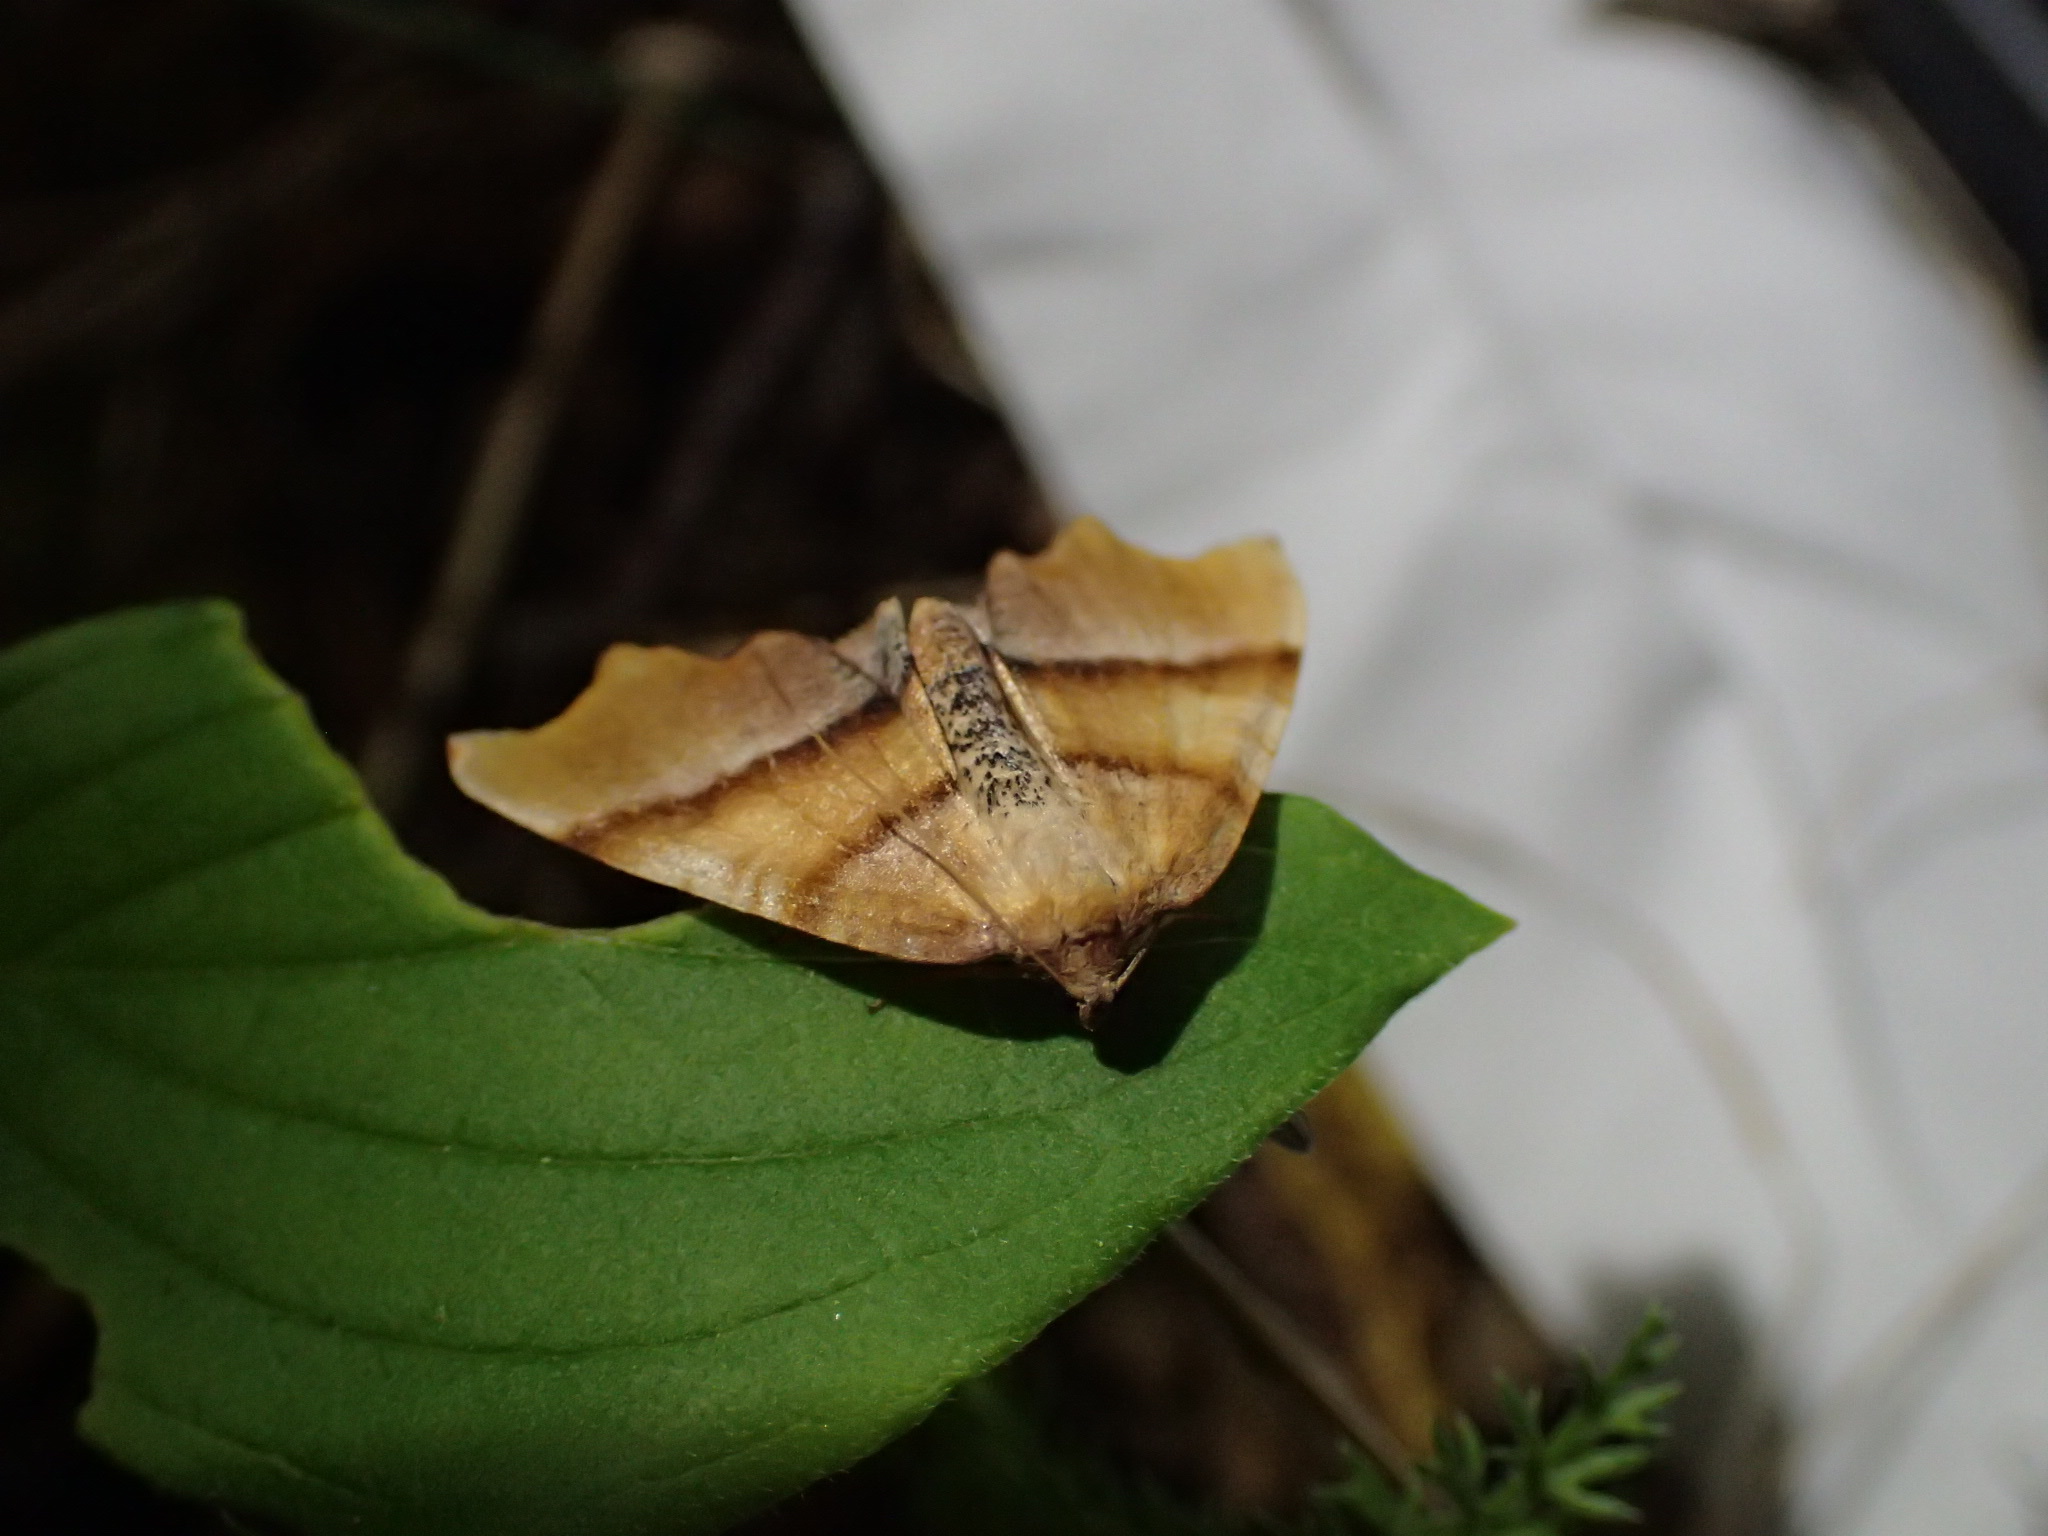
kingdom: Animalia
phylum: Arthropoda
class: Insecta
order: Lepidoptera
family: Geometridae
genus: Plagodis
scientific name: Plagodis phlogosaria
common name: Straight-lined plagodis
